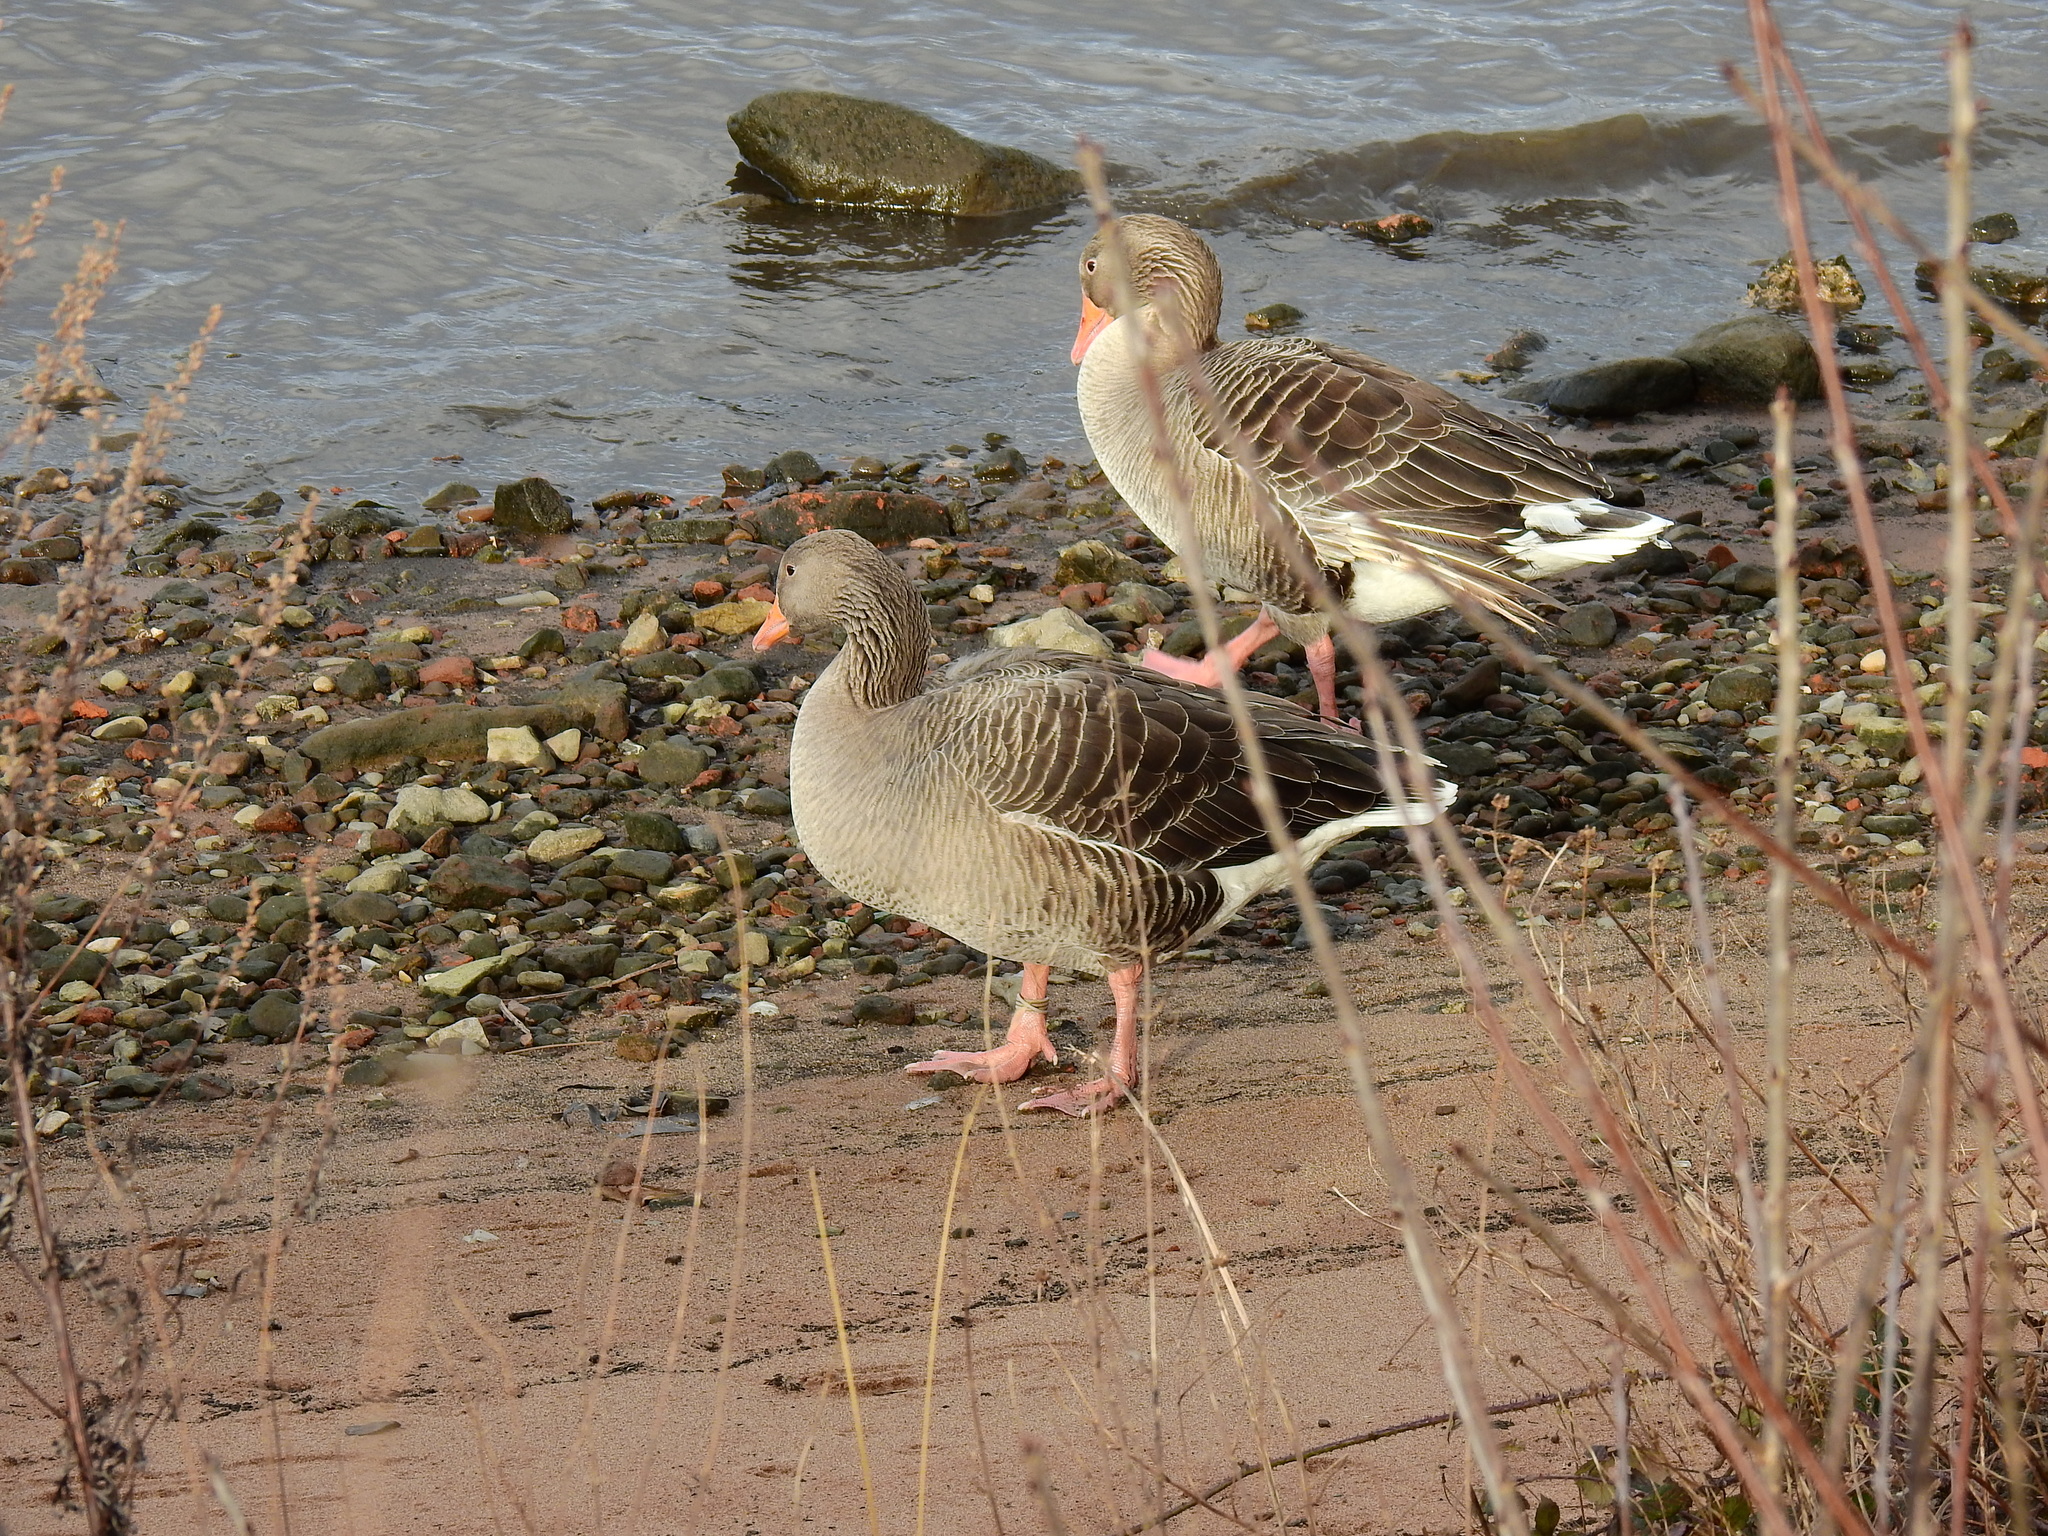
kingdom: Animalia
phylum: Chordata
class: Aves
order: Anseriformes
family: Anatidae
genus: Anser
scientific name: Anser anser
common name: Greylag goose
